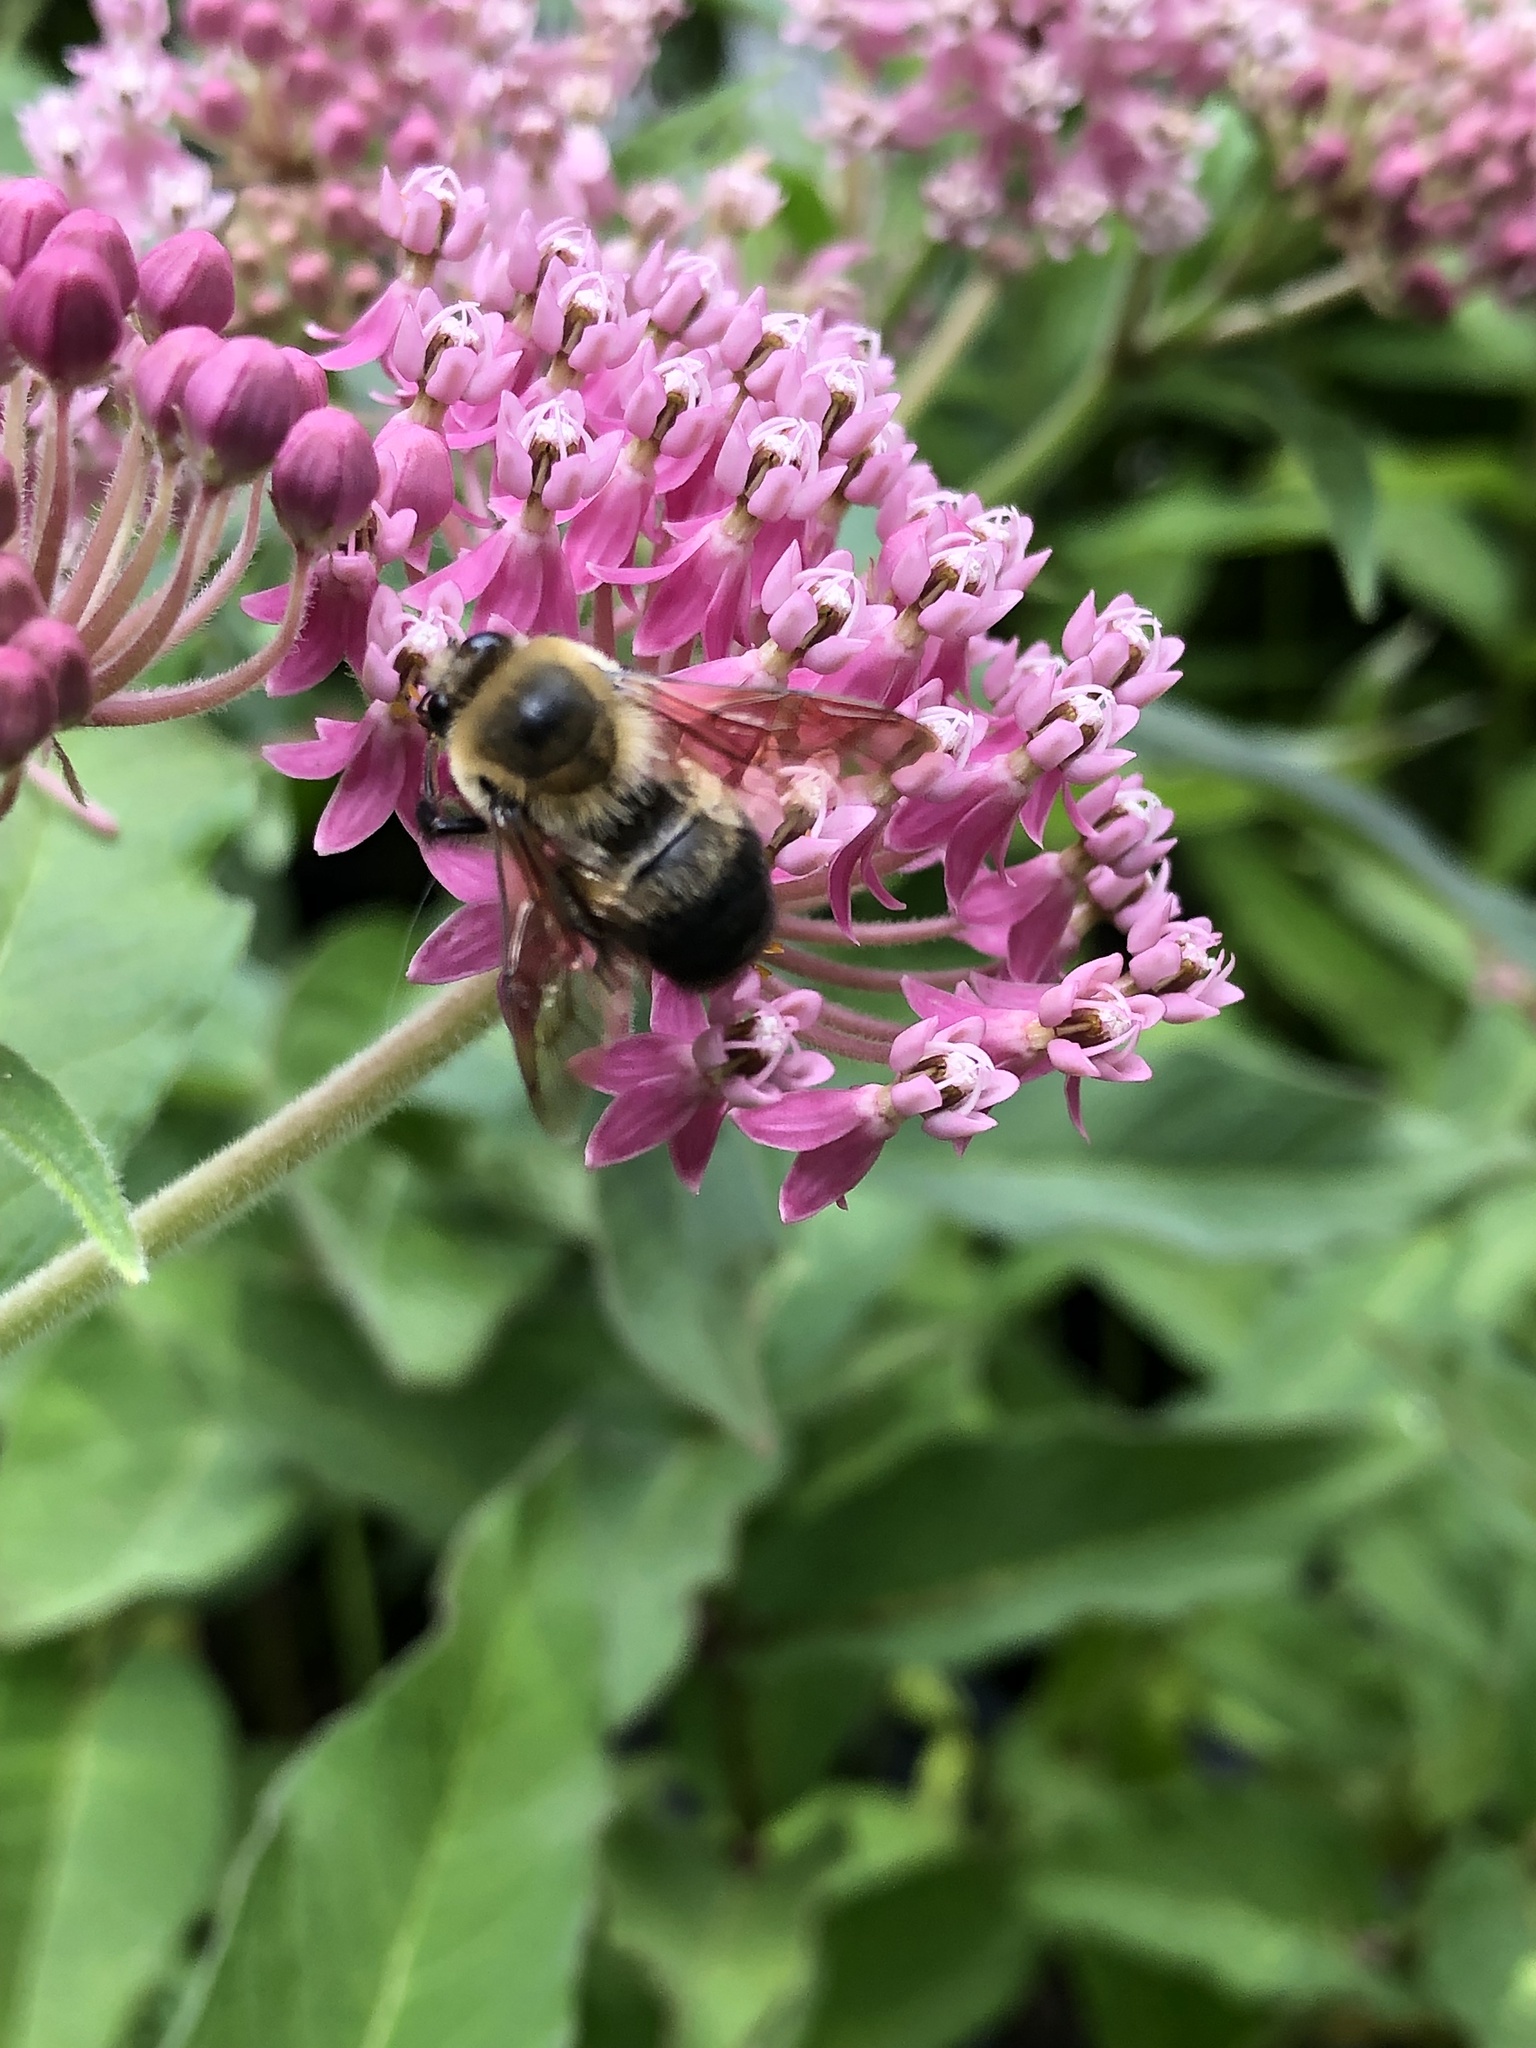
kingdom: Animalia
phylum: Arthropoda
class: Insecta
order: Hymenoptera
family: Apidae
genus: Bombus
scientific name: Bombus griseocollis
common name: Brown-belted bumble bee
